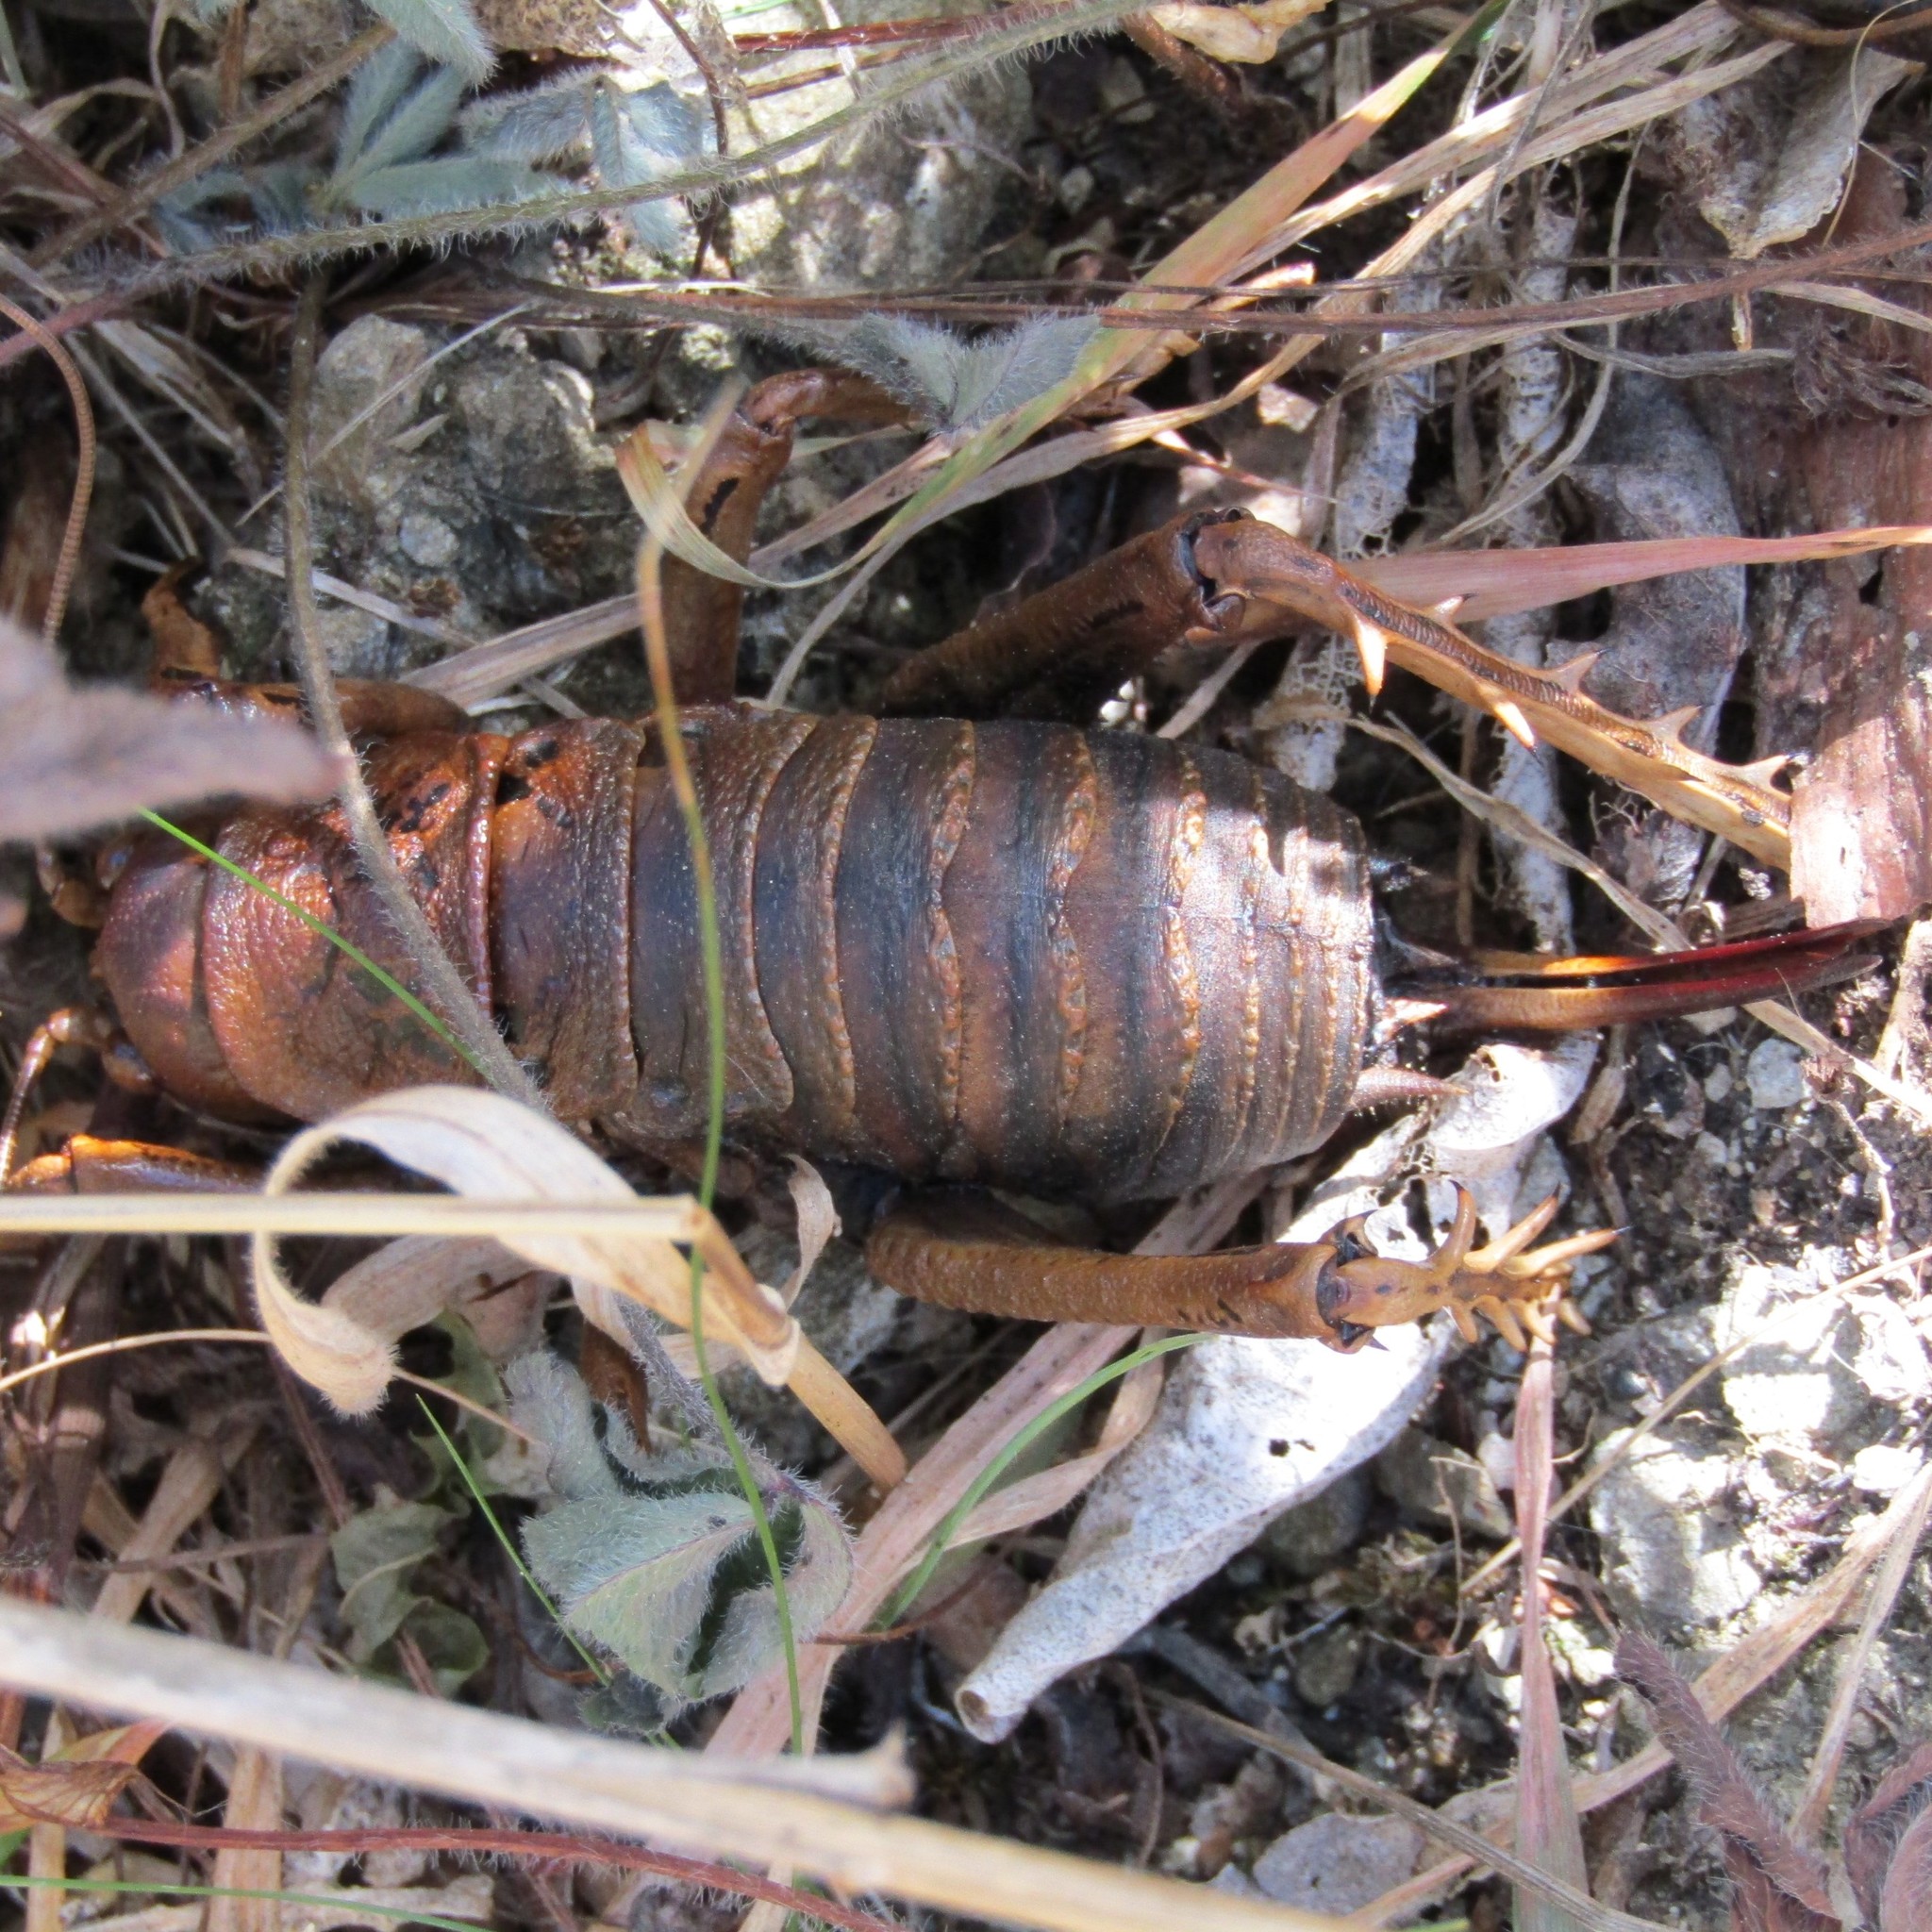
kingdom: Animalia
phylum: Arthropoda
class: Insecta
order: Orthoptera
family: Anostostomatidae
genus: Deinacrida
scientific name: Deinacrida rugosa
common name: Stephens island weta
